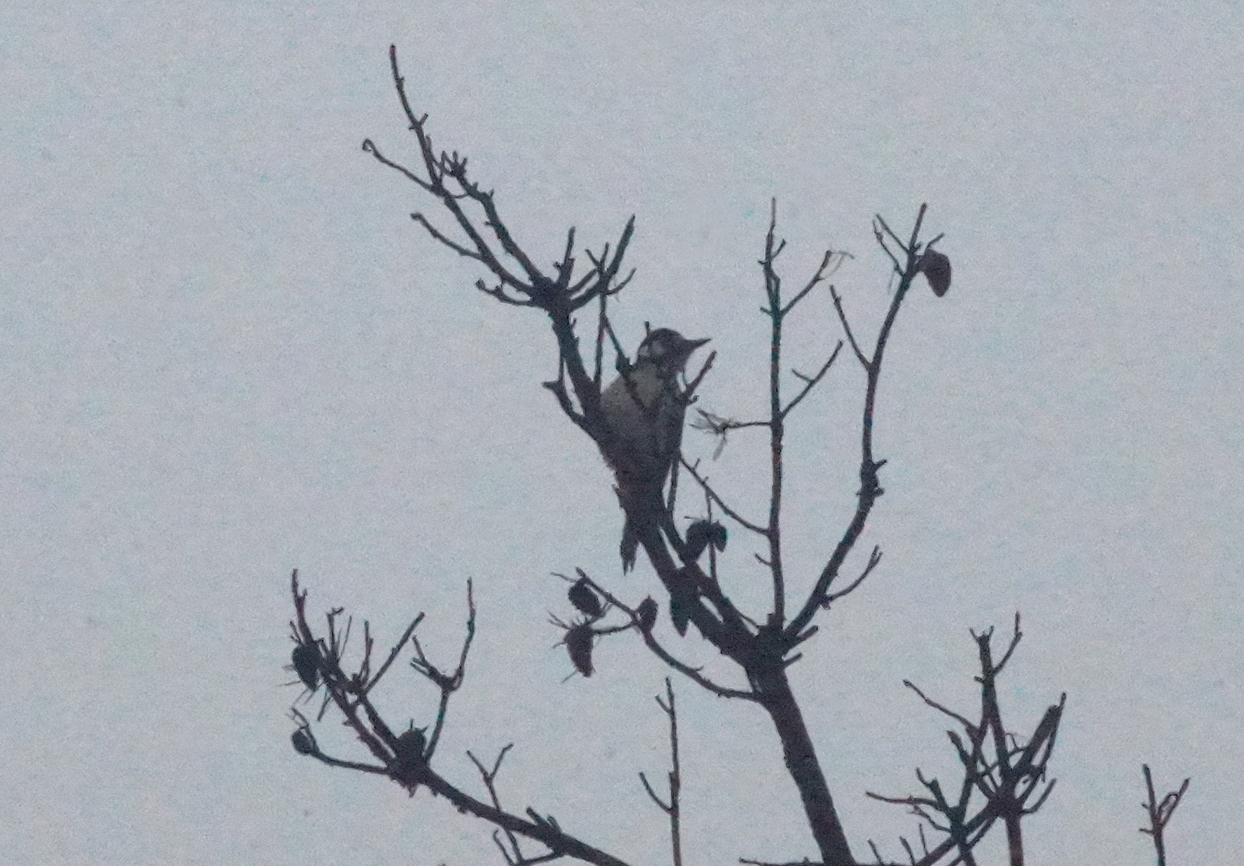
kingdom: Animalia
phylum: Chordata
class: Aves
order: Piciformes
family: Picidae
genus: Dendrocopos
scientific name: Dendrocopos major
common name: Great spotted woodpecker
